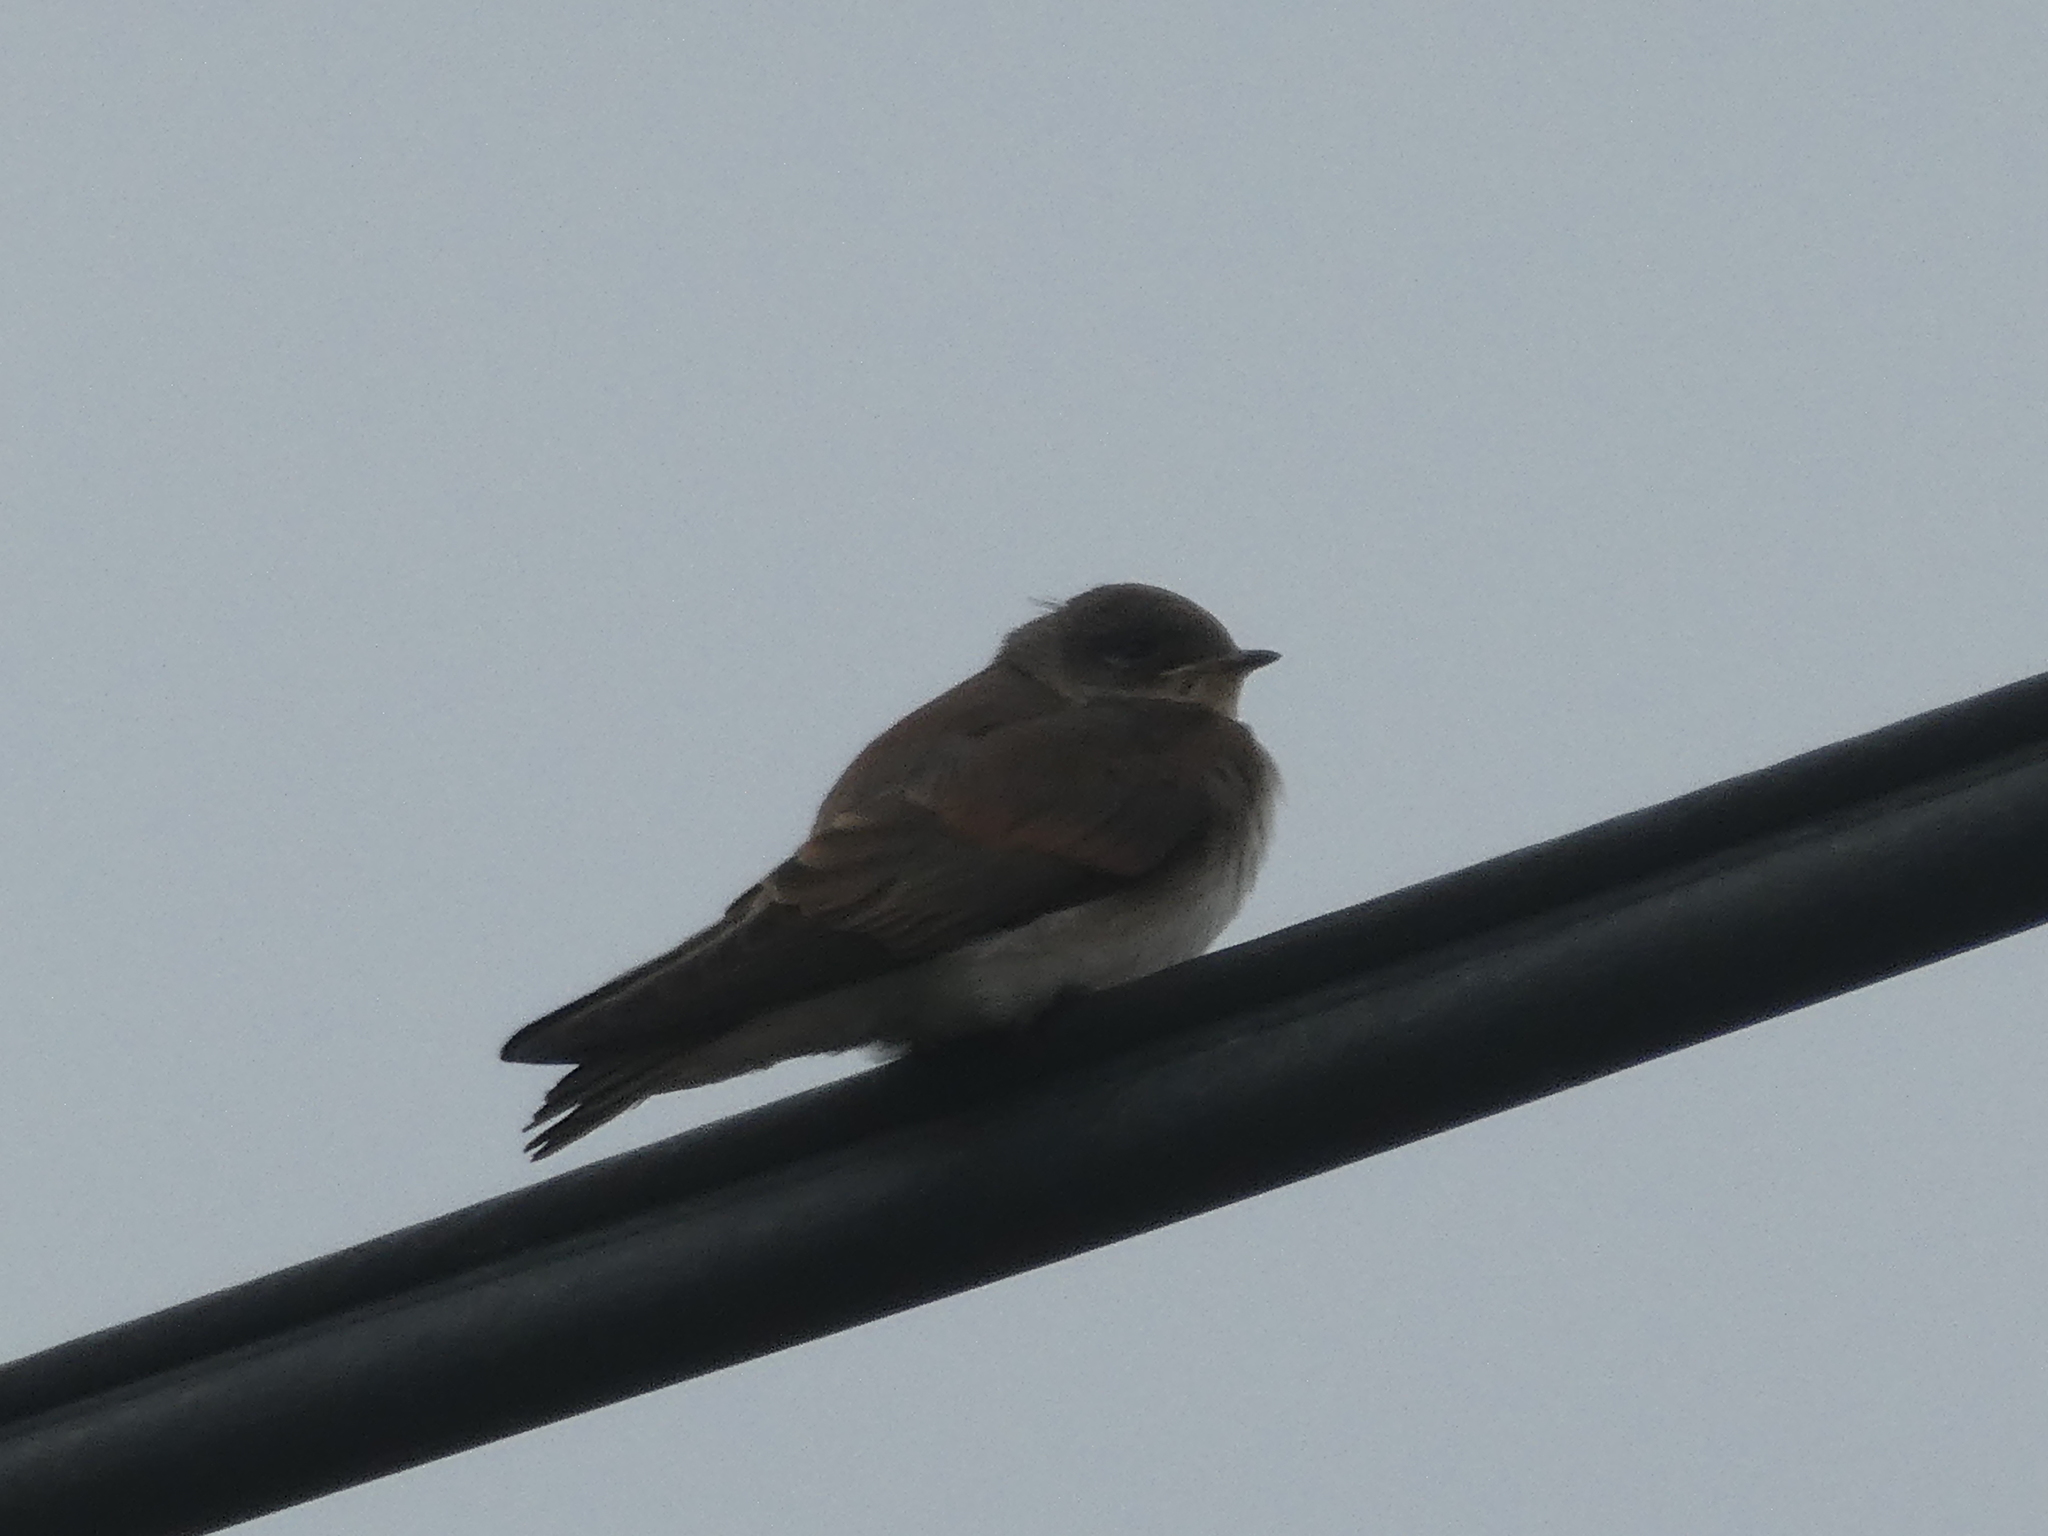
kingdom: Animalia
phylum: Chordata
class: Aves
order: Passeriformes
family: Hirundinidae
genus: Stelgidopteryx
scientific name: Stelgidopteryx serripennis
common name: Northern rough-winged swallow
